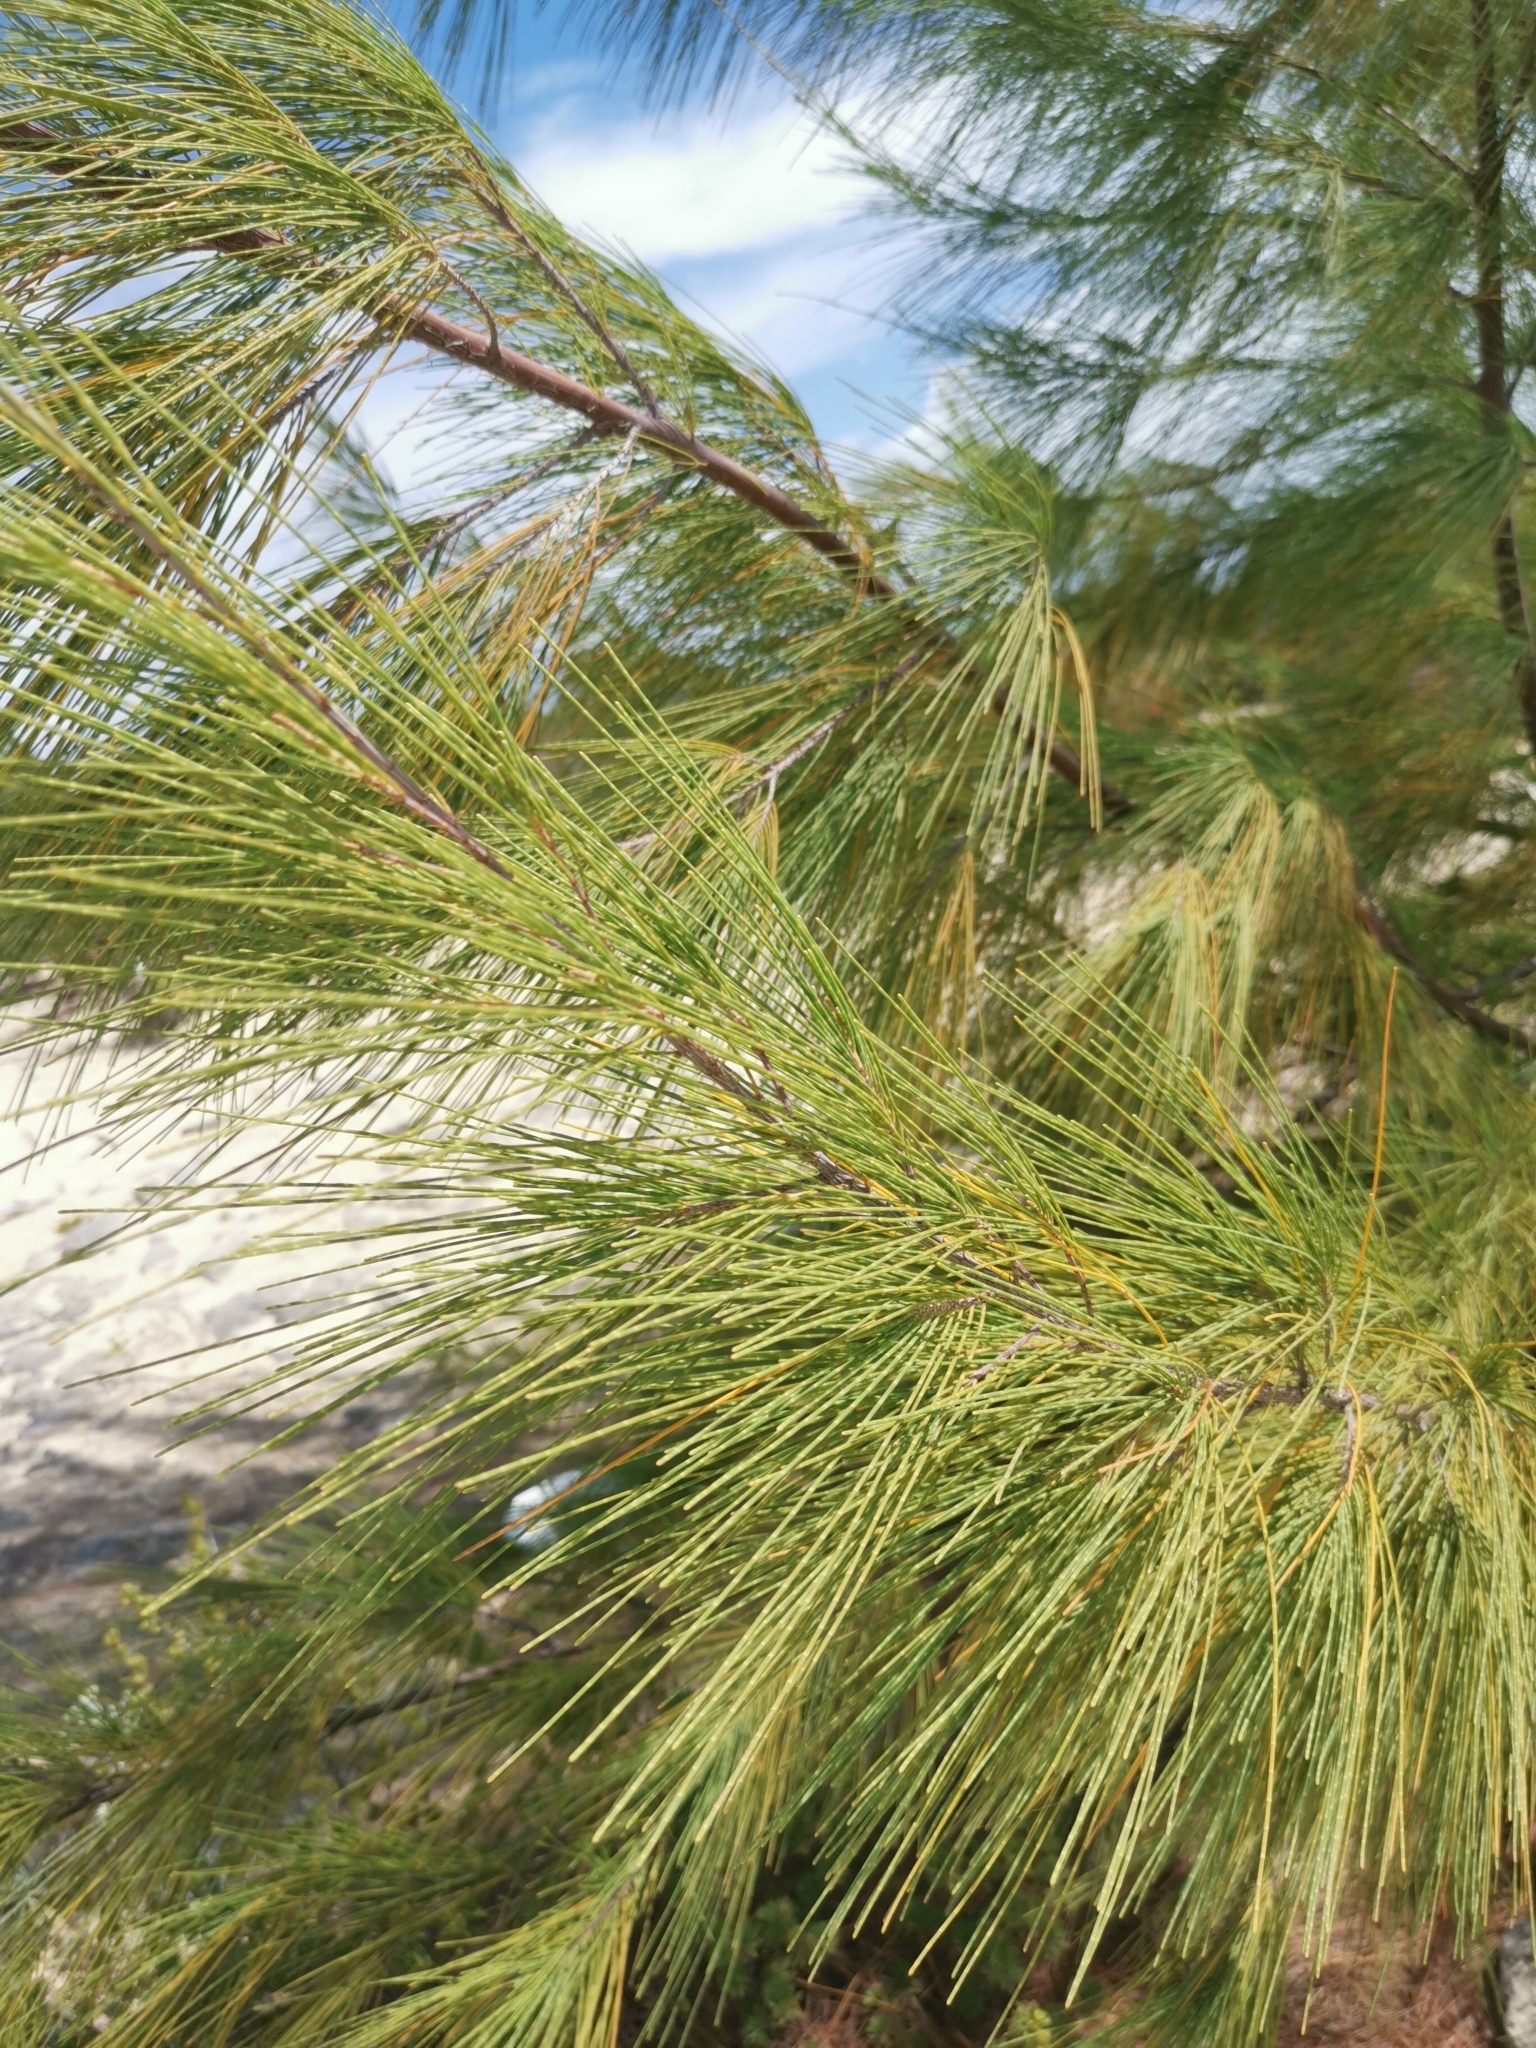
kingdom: Plantae
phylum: Tracheophyta
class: Magnoliopsida
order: Fagales
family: Casuarinaceae
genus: Casuarina
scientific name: Casuarina equisetifolia
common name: Beach sheoak
